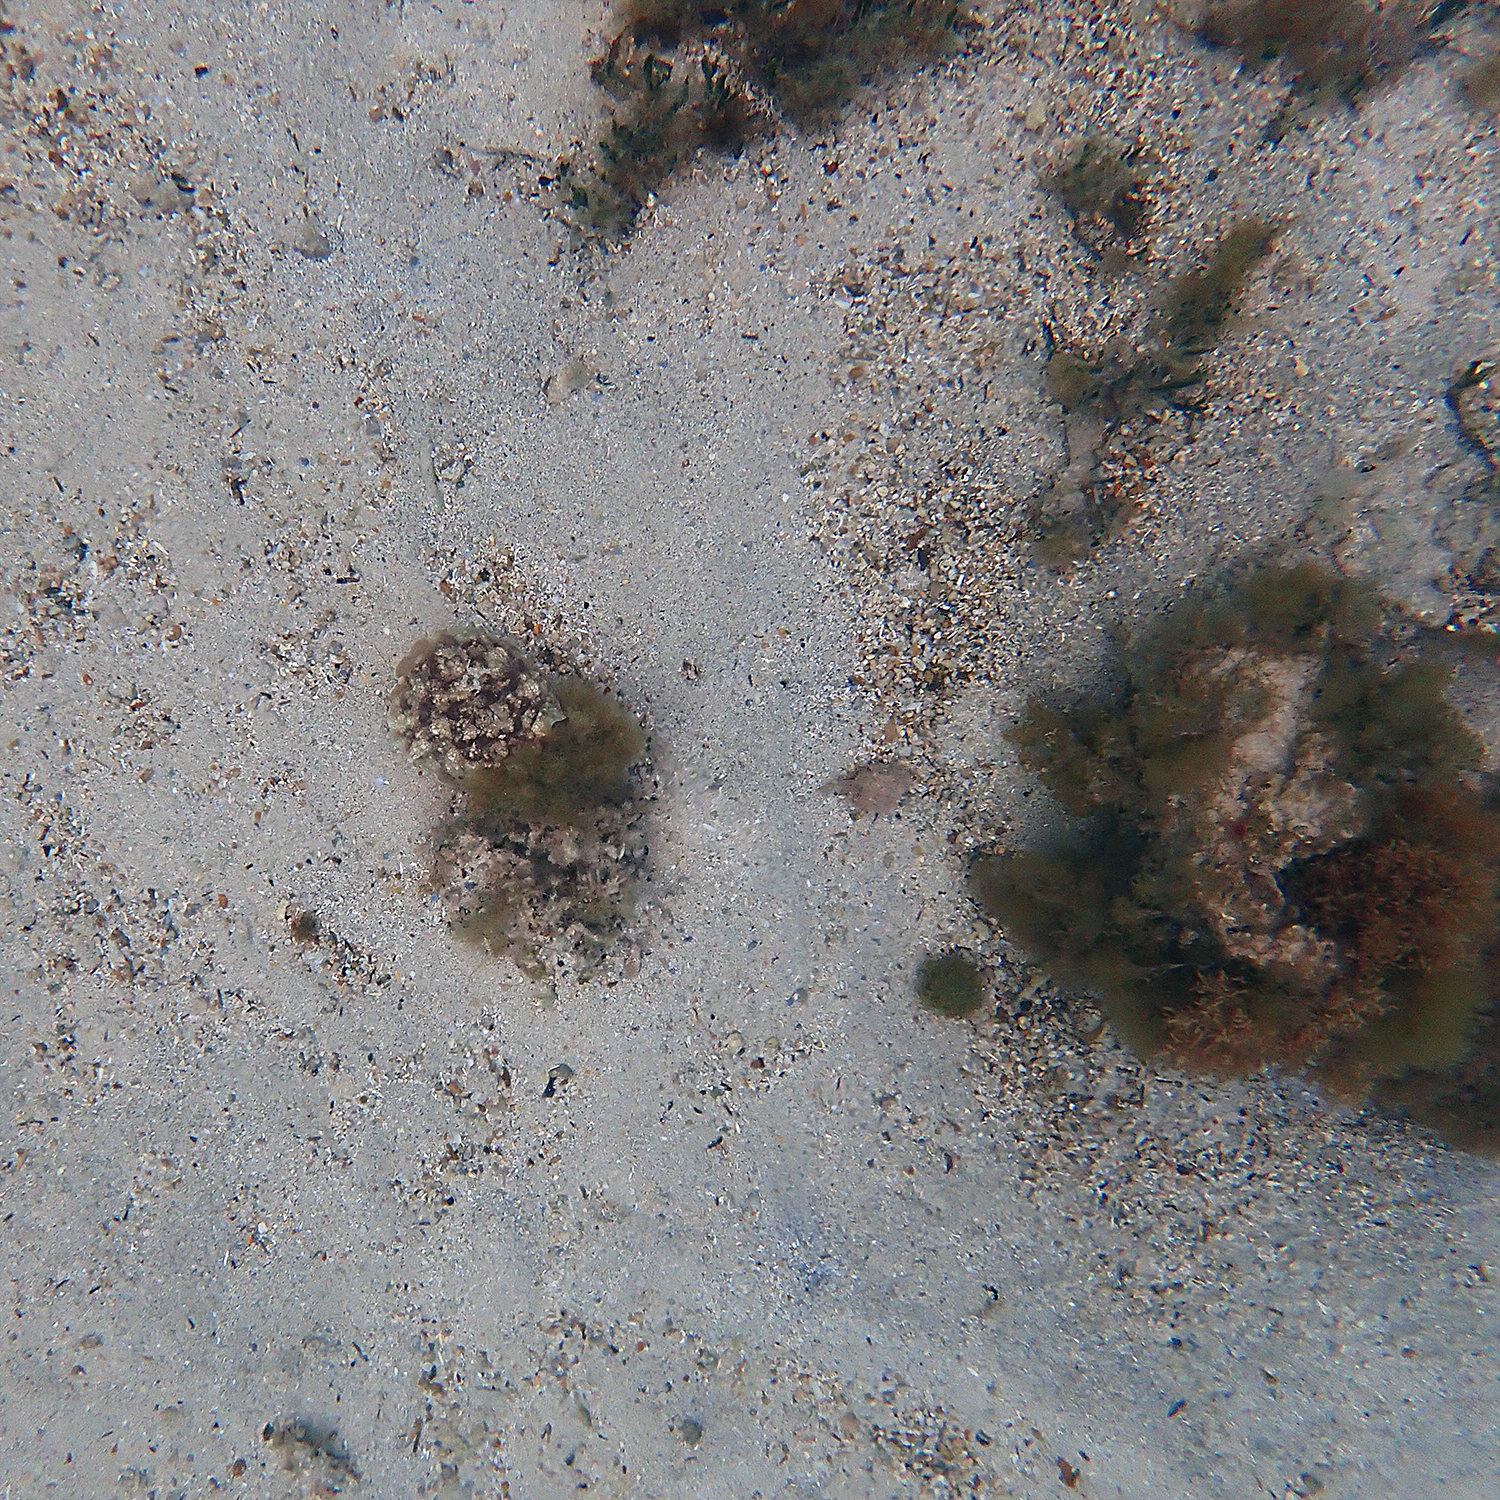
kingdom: Animalia
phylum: Mollusca
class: Gastropoda
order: Pleurobranchida
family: Pleurobranchidae
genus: Pleurobranchus
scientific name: Pleurobranchus forskalii
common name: Forskal's side-gilled sea slug
